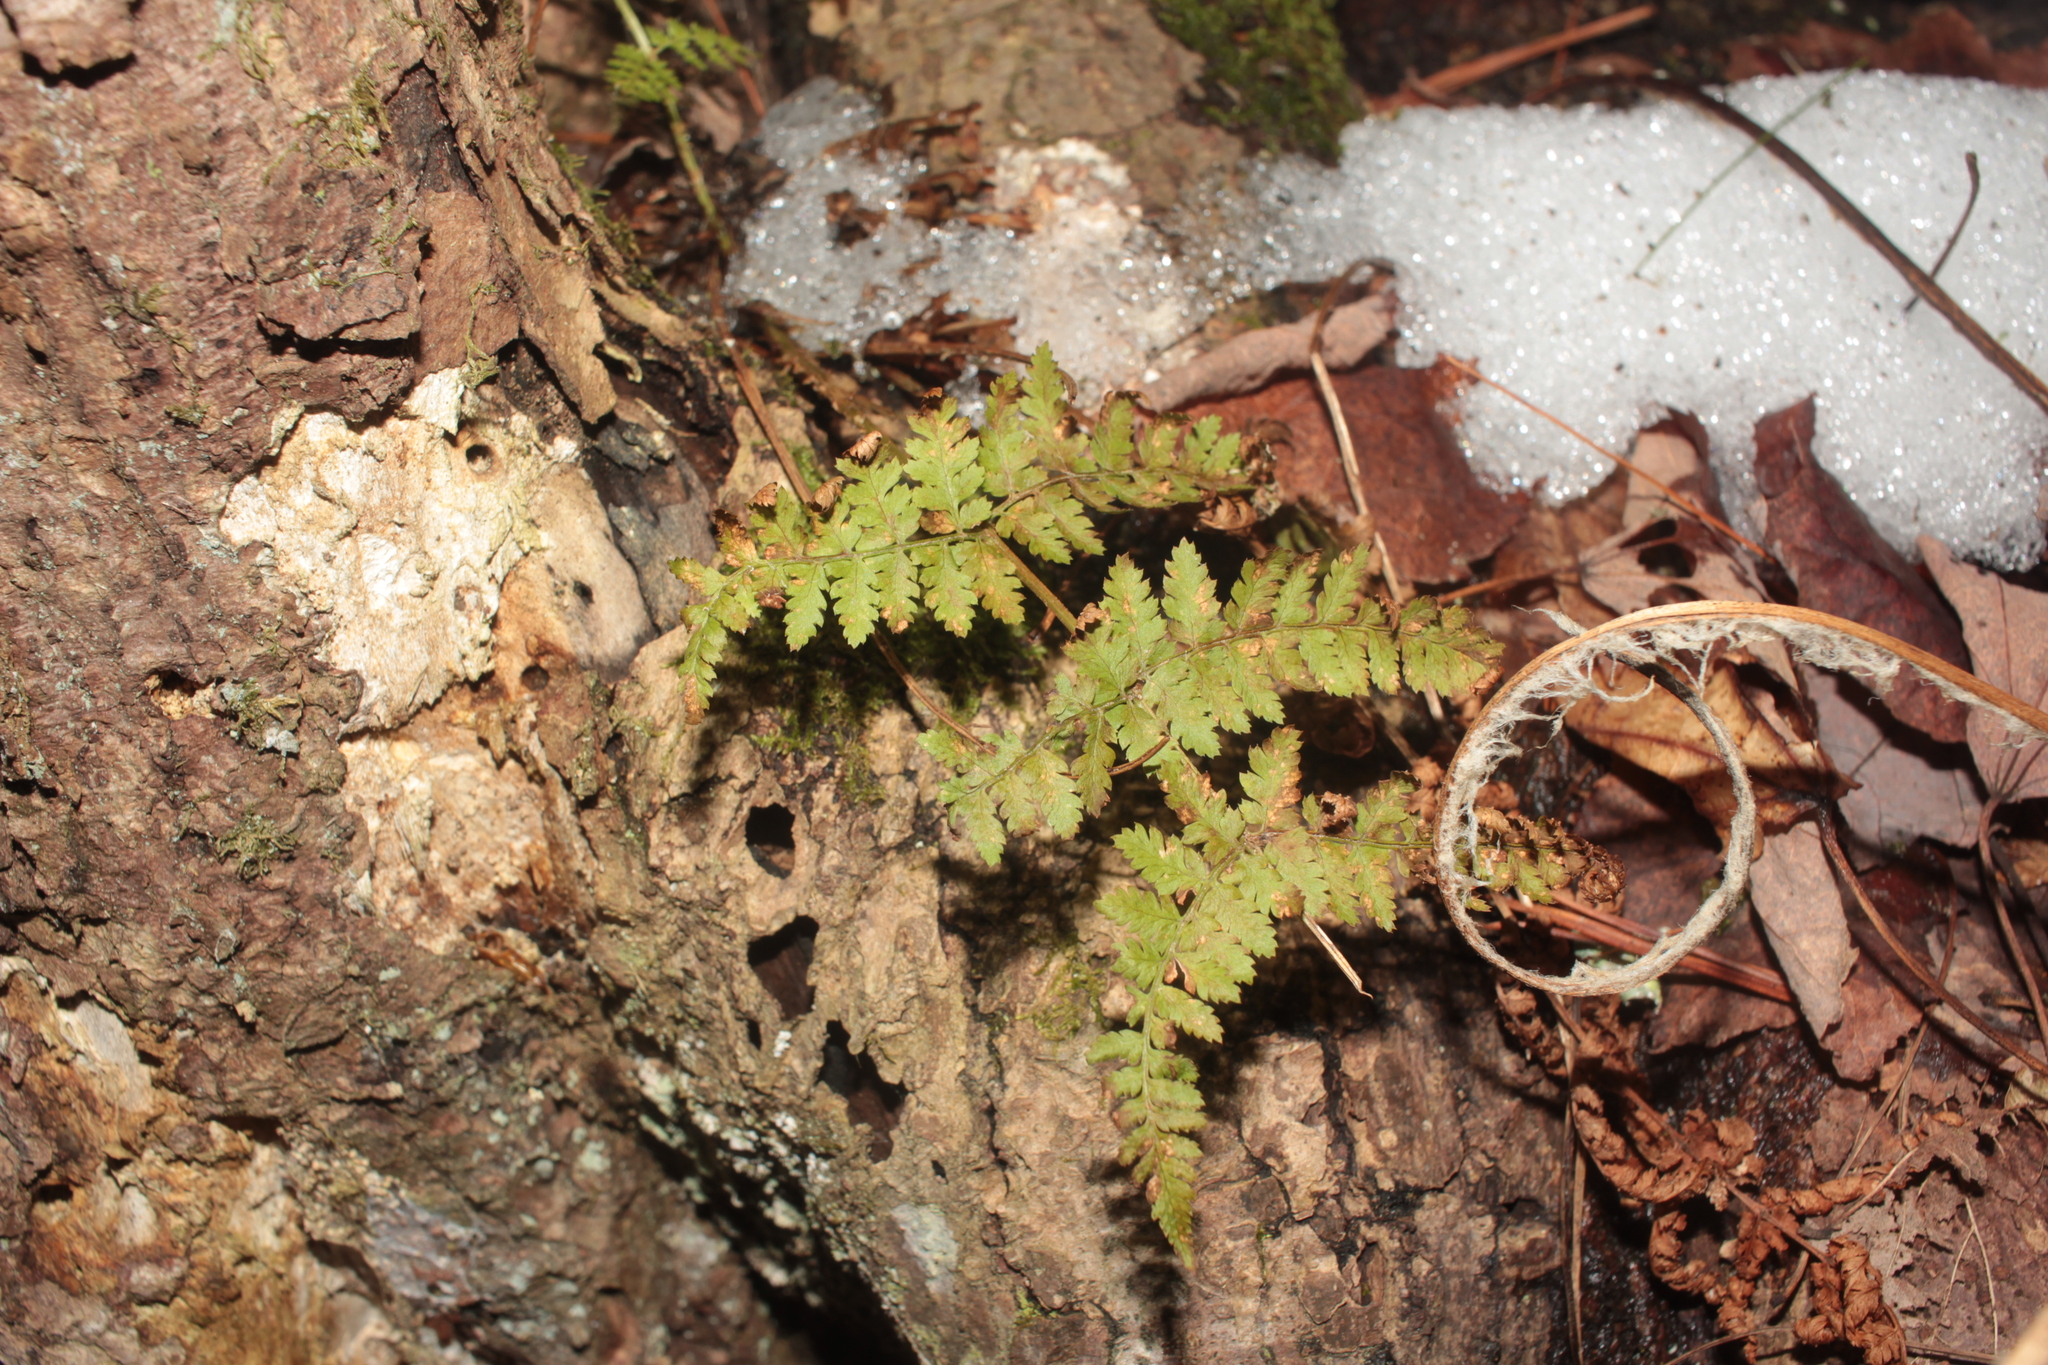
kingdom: Plantae
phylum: Tracheophyta
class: Polypodiopsida
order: Polypodiales
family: Dryopteridaceae
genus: Dryopteris
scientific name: Dryopteris intermedia
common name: Evergreen wood fern
